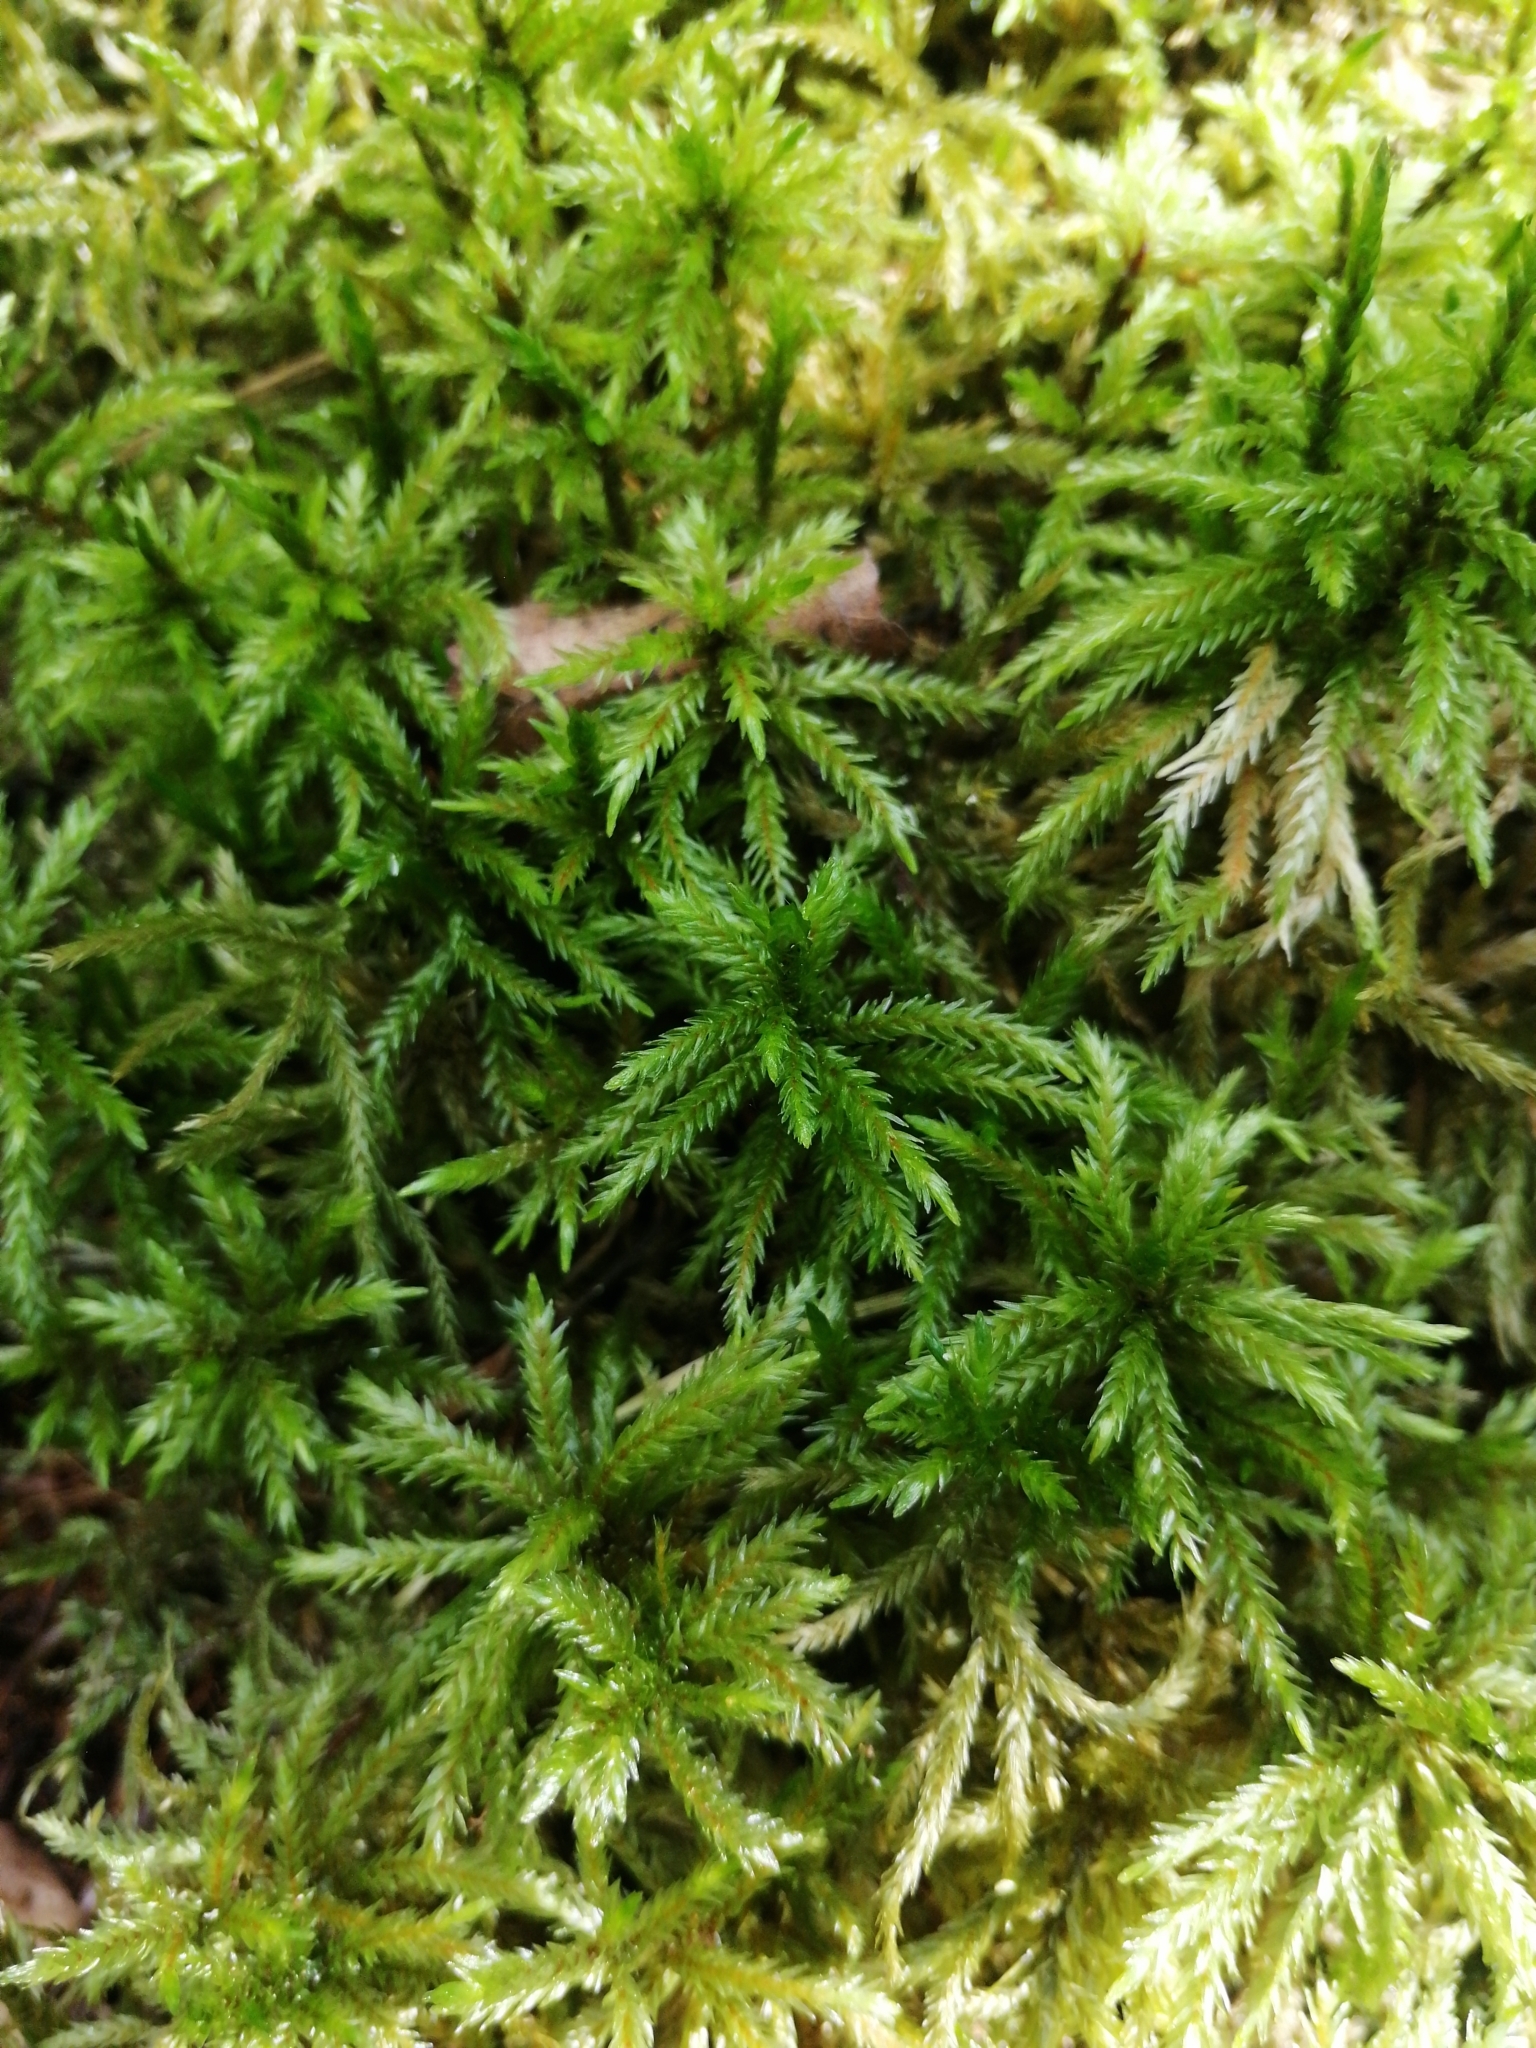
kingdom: Plantae
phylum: Bryophyta
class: Bryopsida
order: Hypnales
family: Climaciaceae
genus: Climacium
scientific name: Climacium dendroides
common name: Northern tree moss
